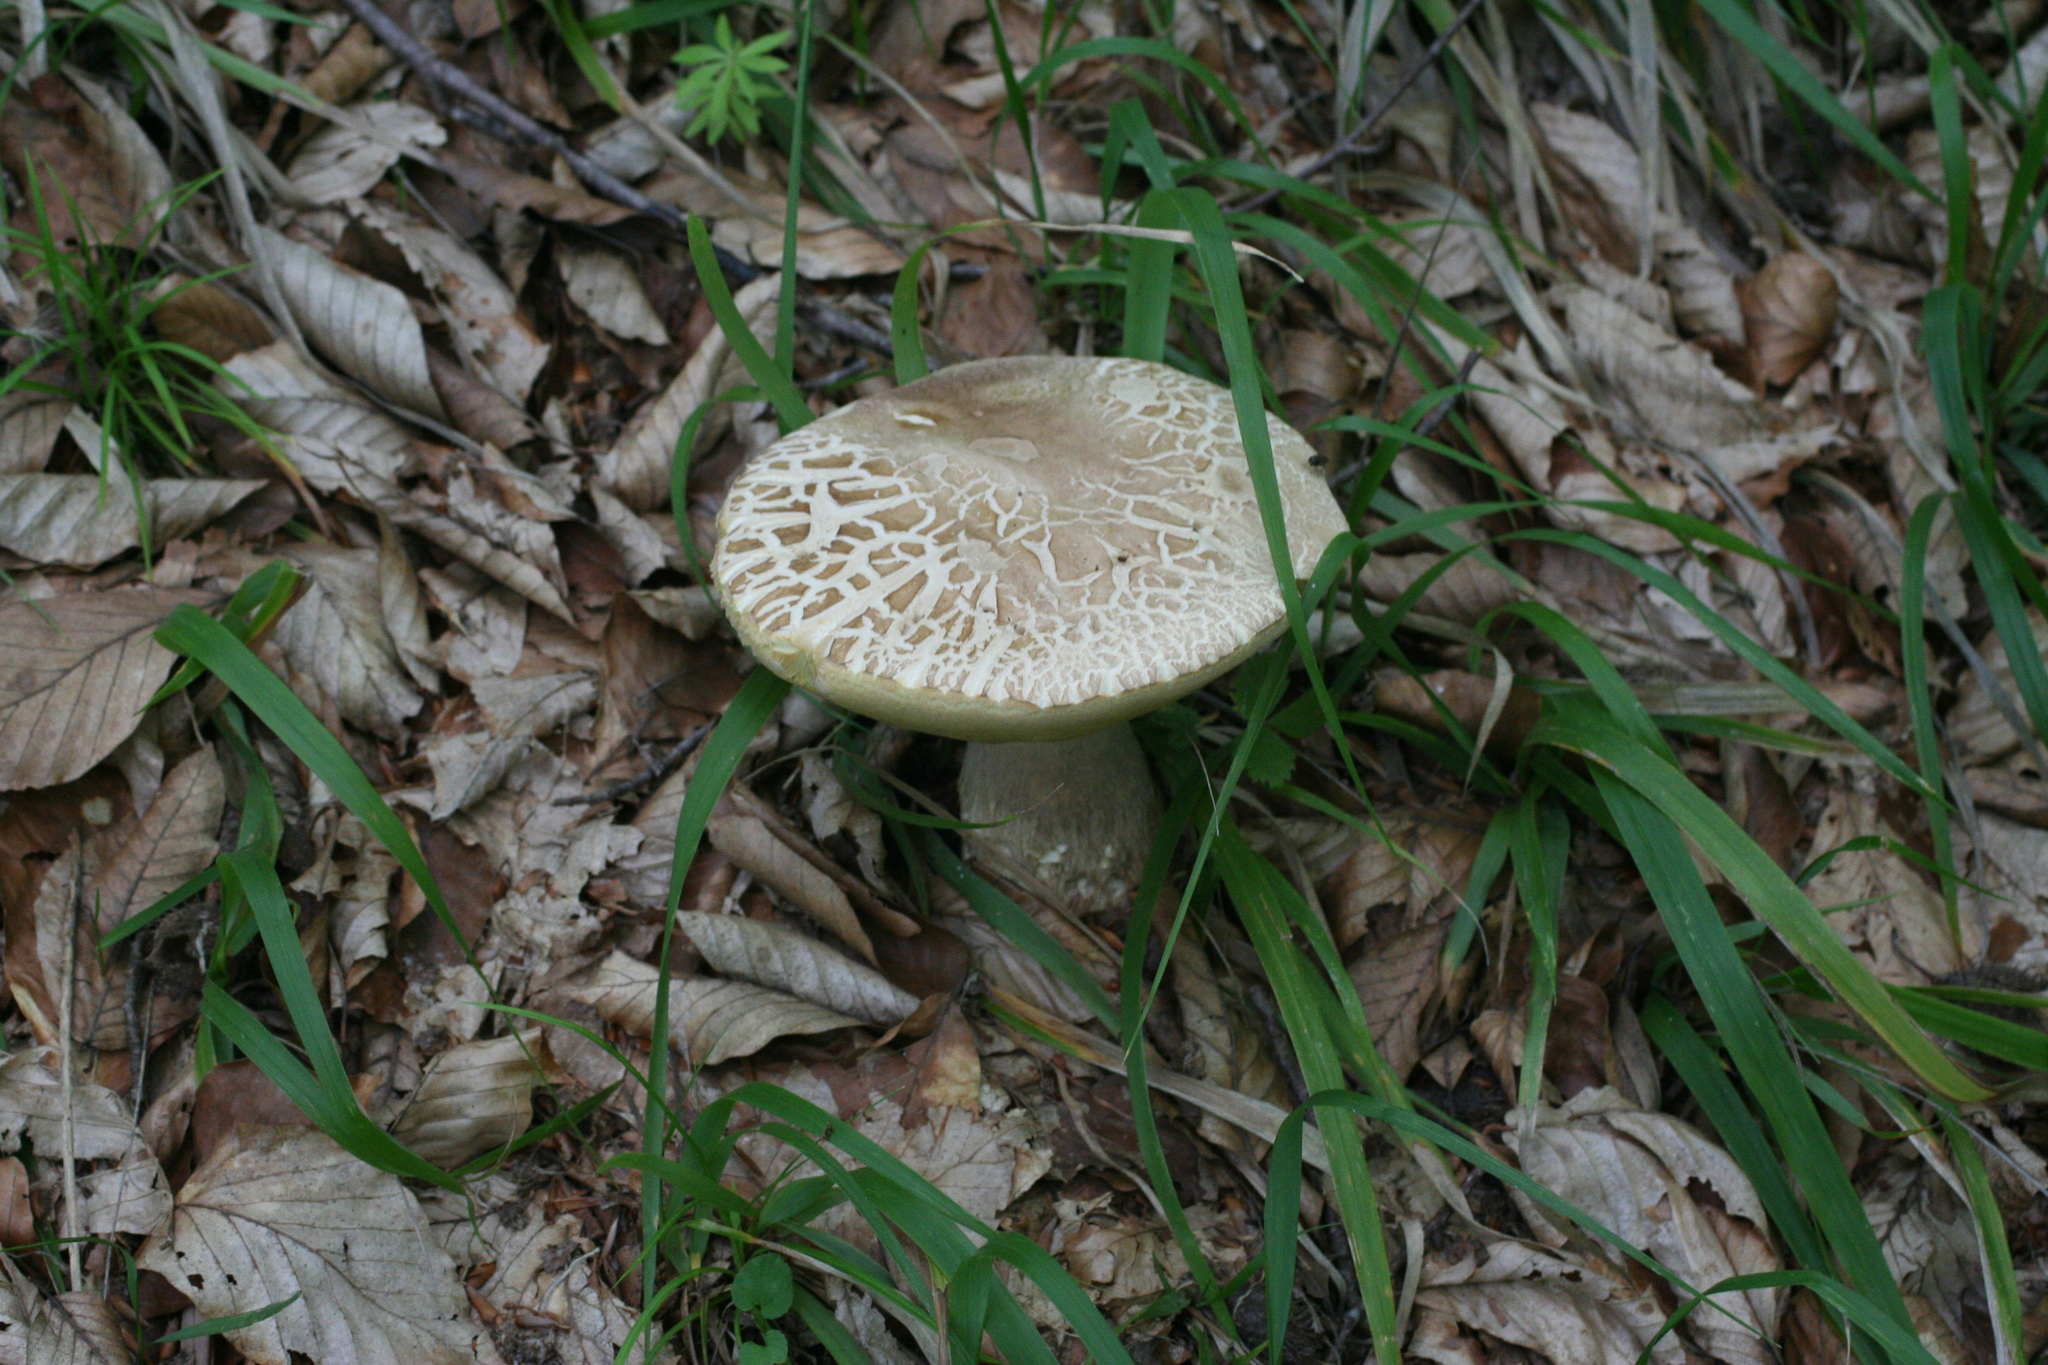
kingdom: Fungi
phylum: Basidiomycota
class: Agaricomycetes
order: Boletales
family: Boletaceae
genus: Boletus
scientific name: Boletus reticulatus
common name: Summer bolete
